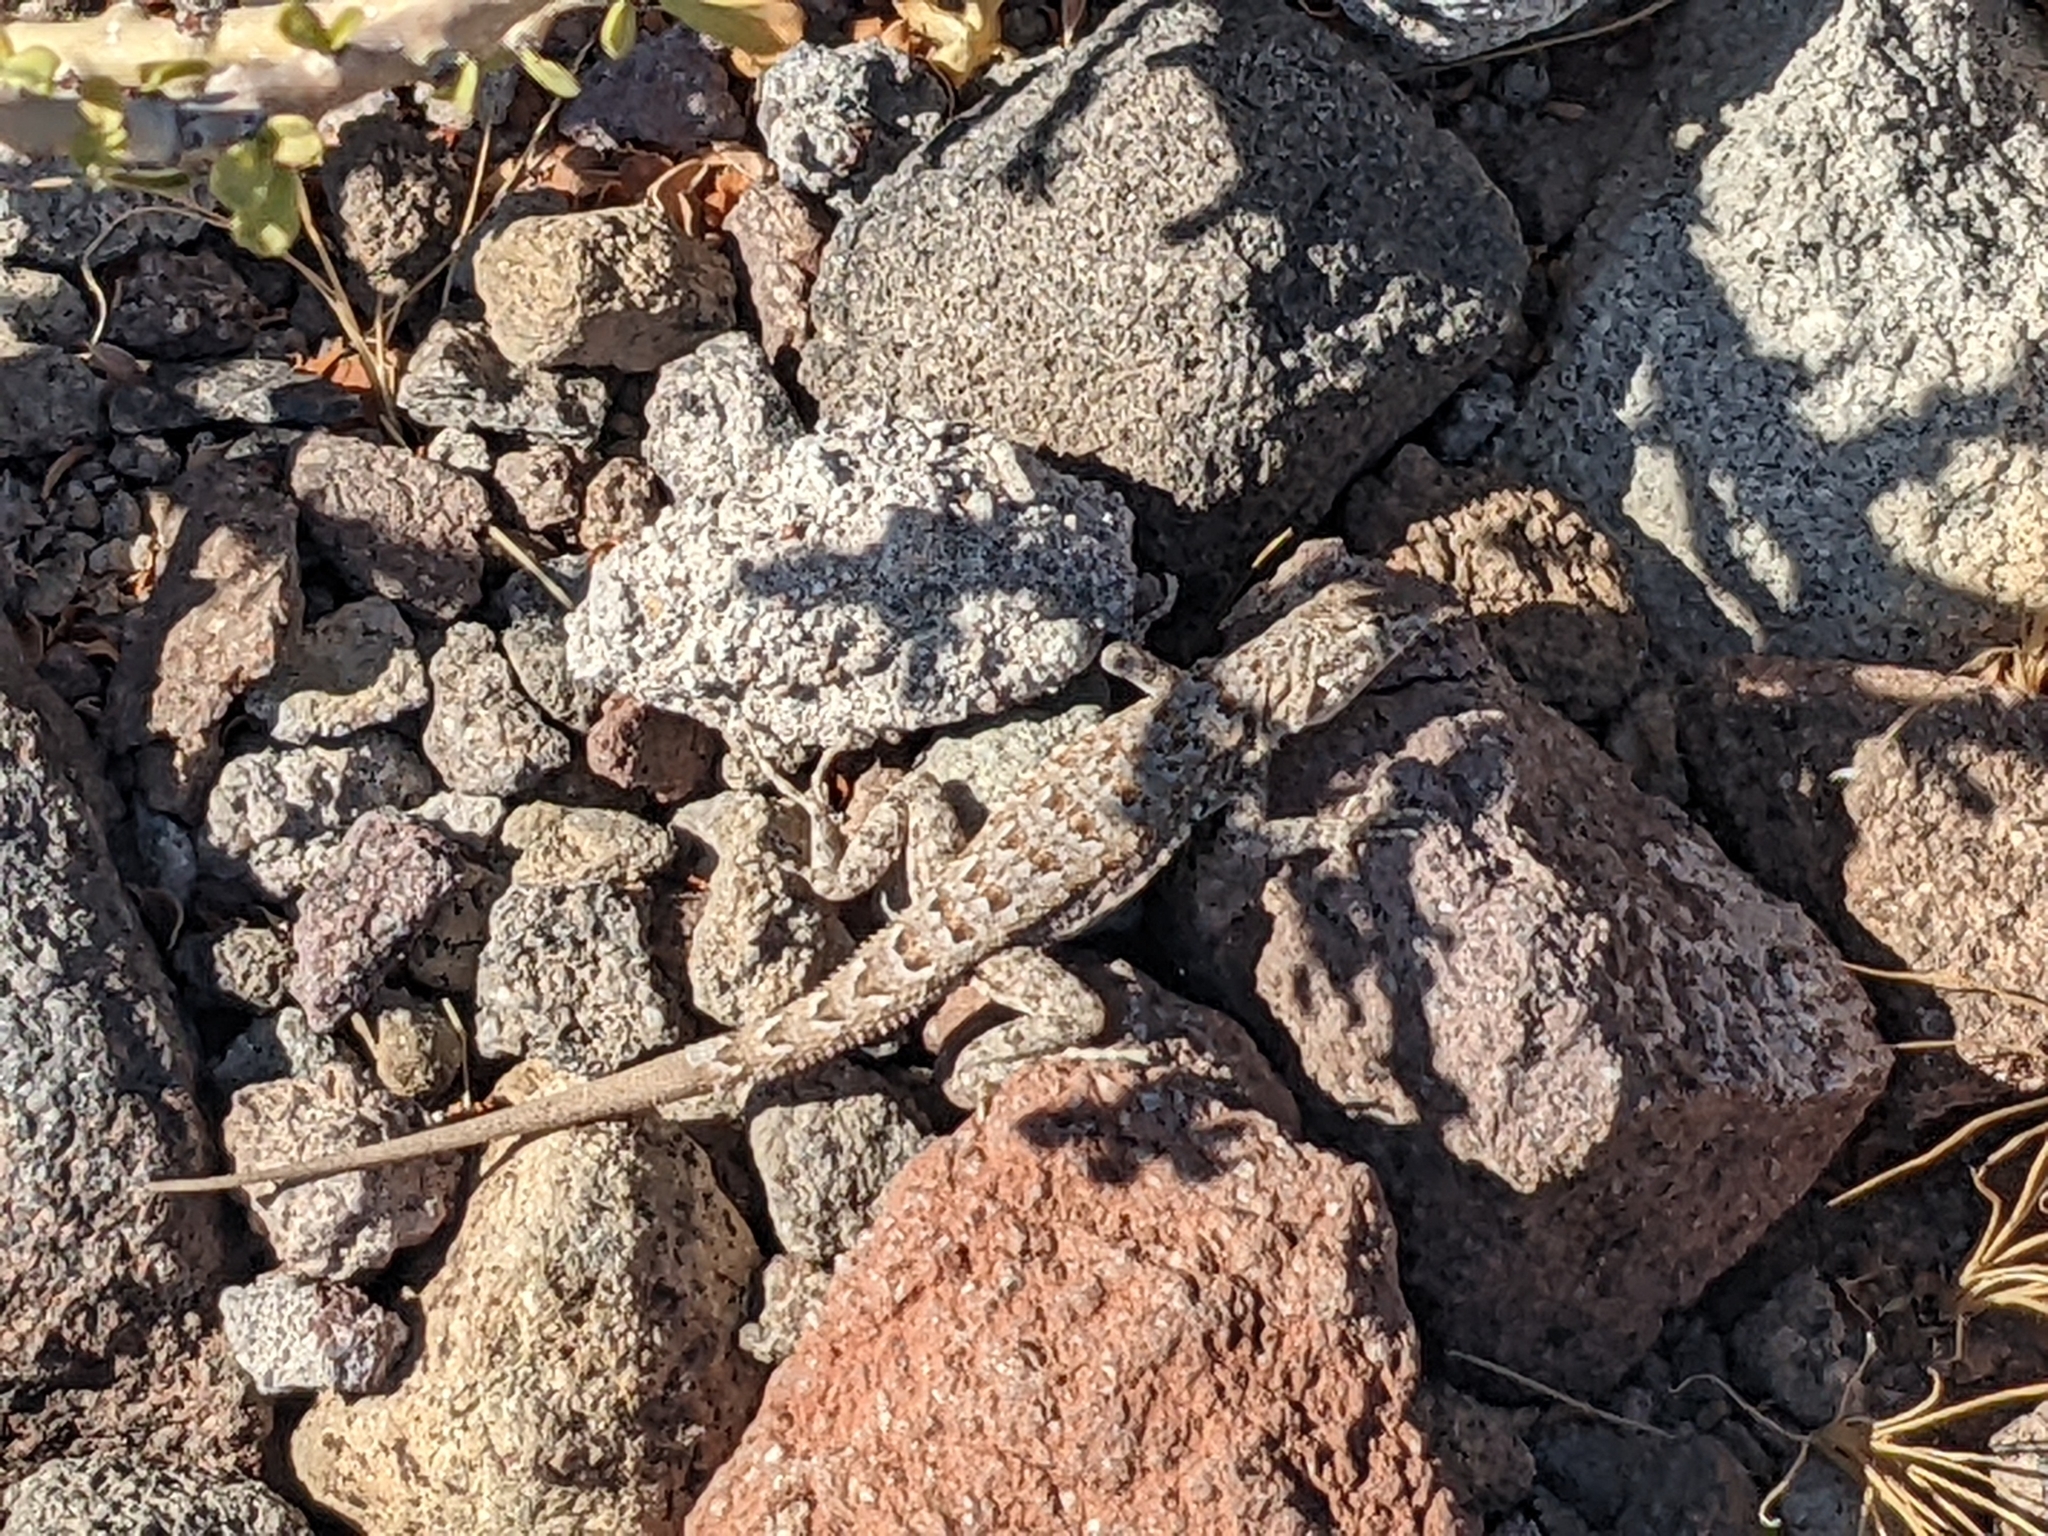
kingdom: Animalia
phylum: Chordata
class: Squamata
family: Phrynosomatidae
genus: Uta
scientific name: Uta stansburiana
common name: Side-blotched lizard
